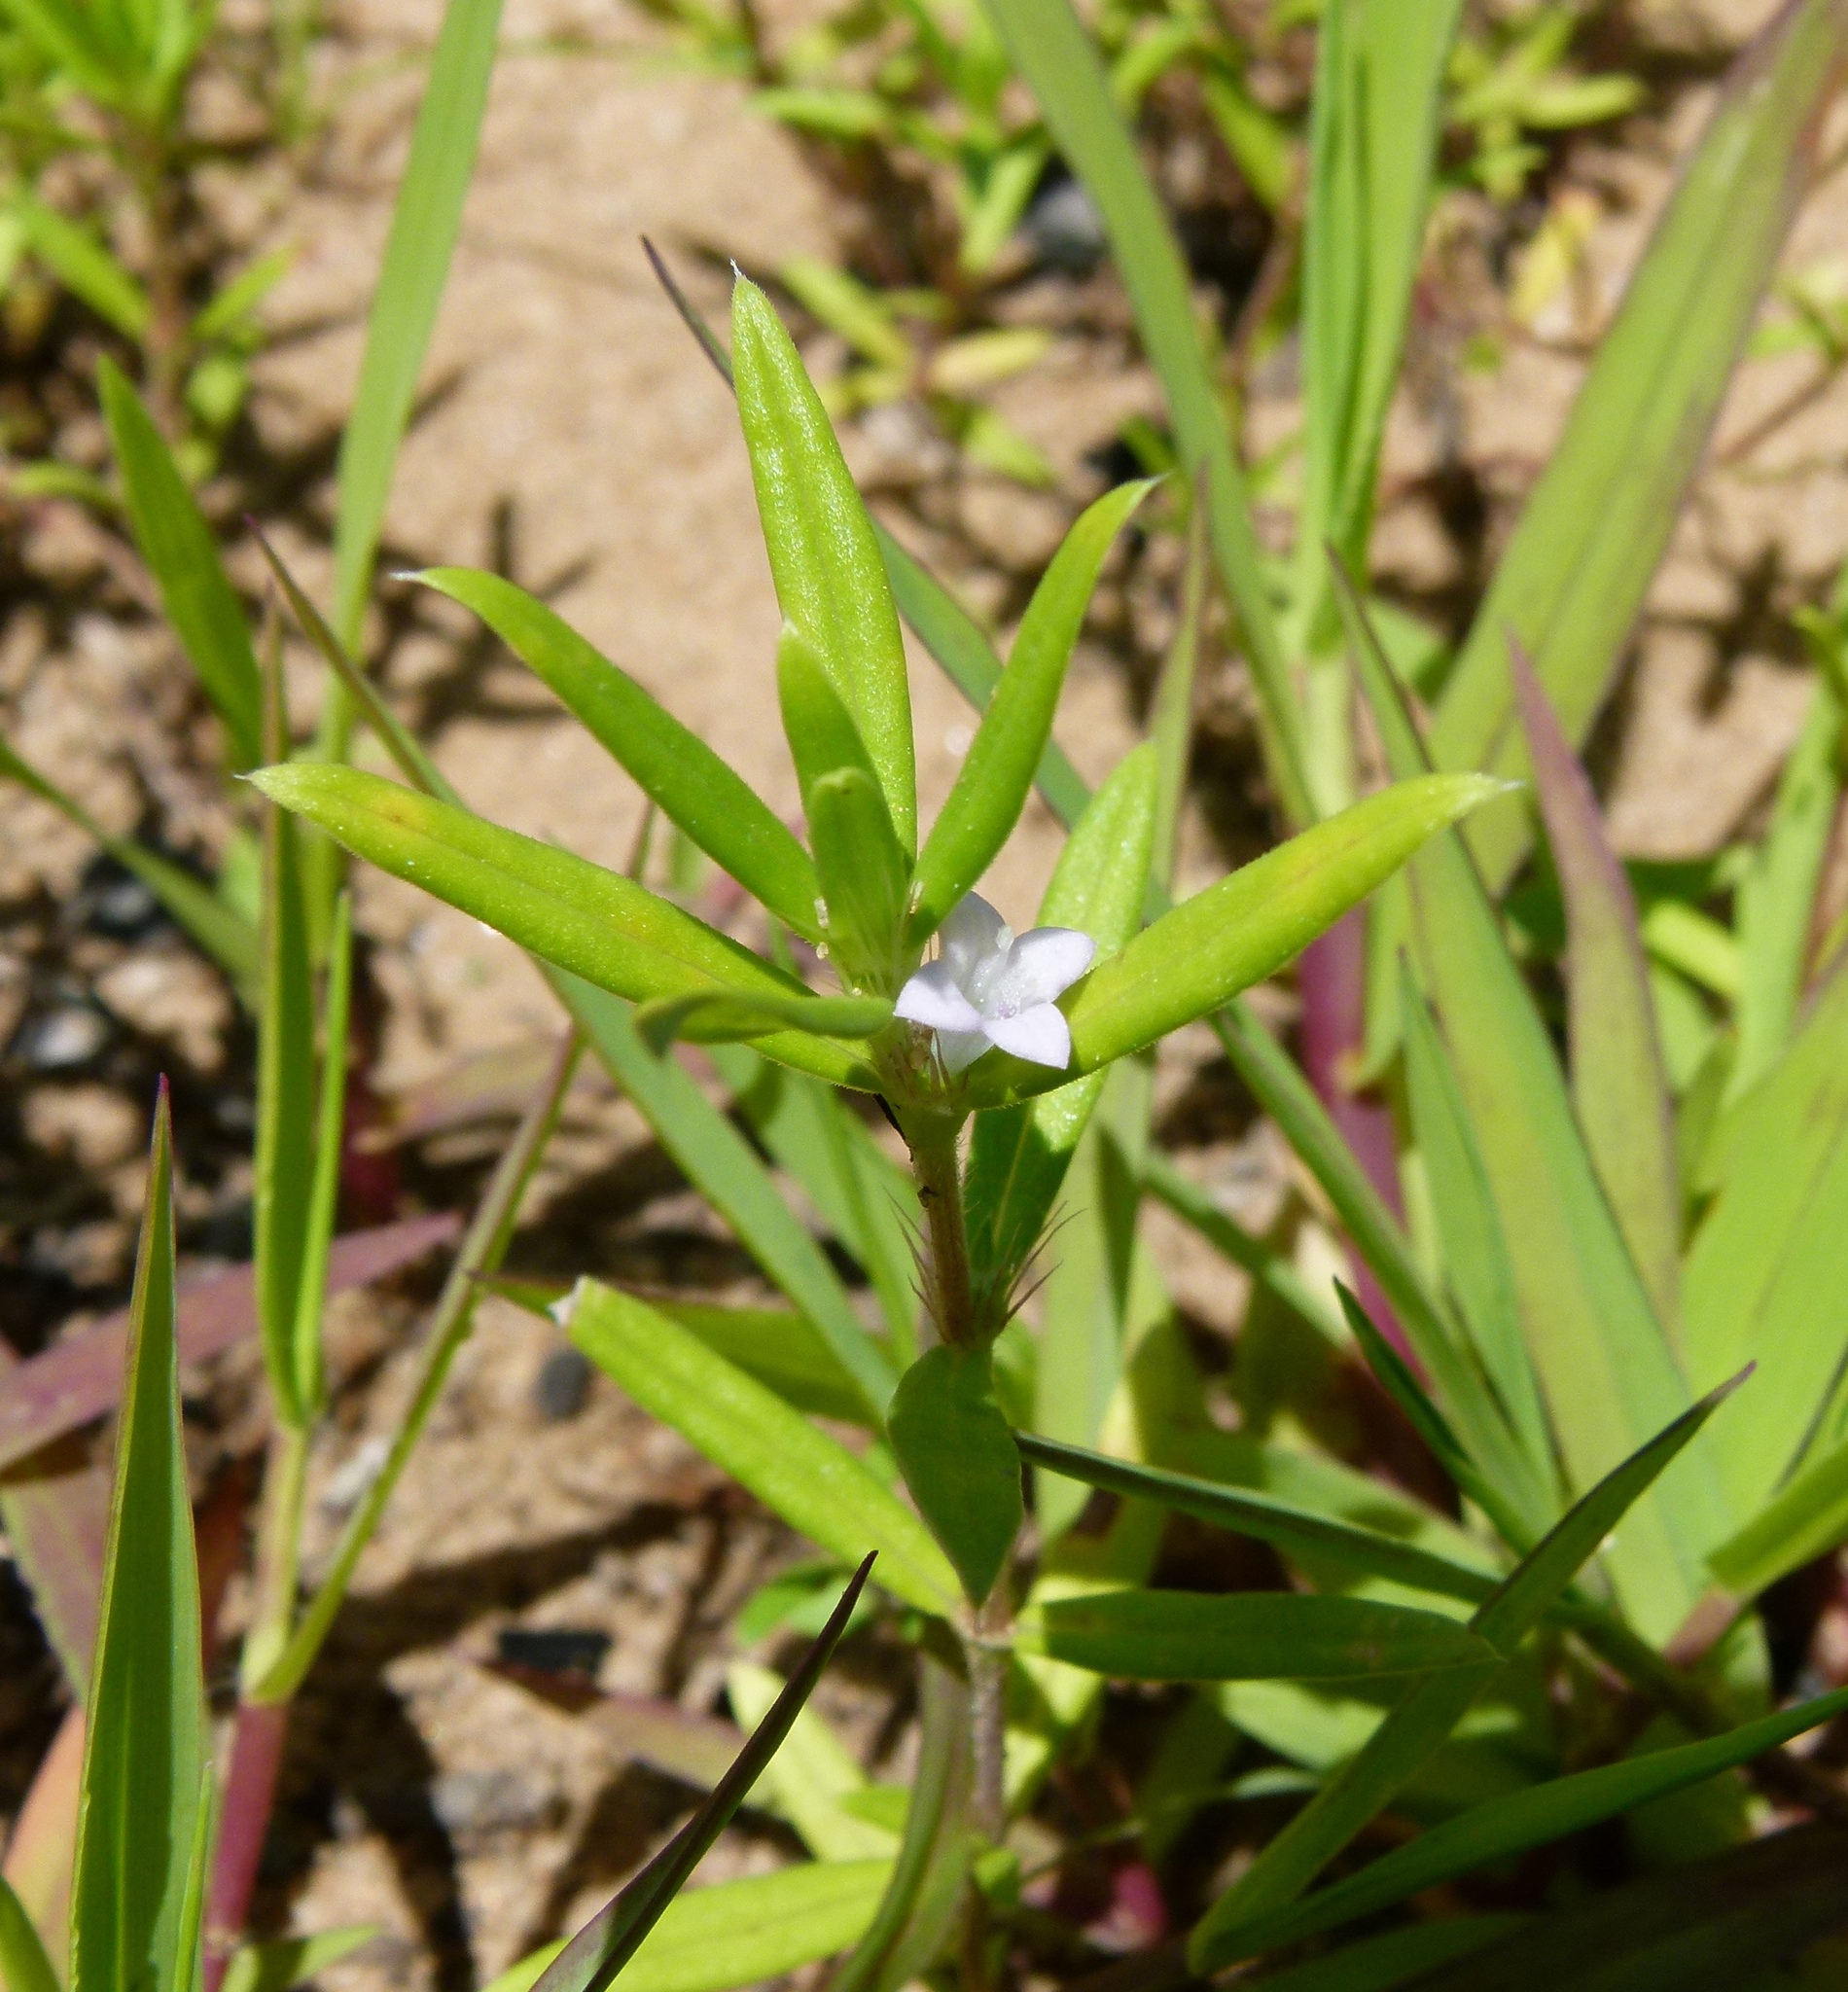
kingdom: Plantae
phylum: Tracheophyta
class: Magnoliopsida
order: Gentianales
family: Rubiaceae
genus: Hexasepalum
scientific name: Hexasepalum teres
